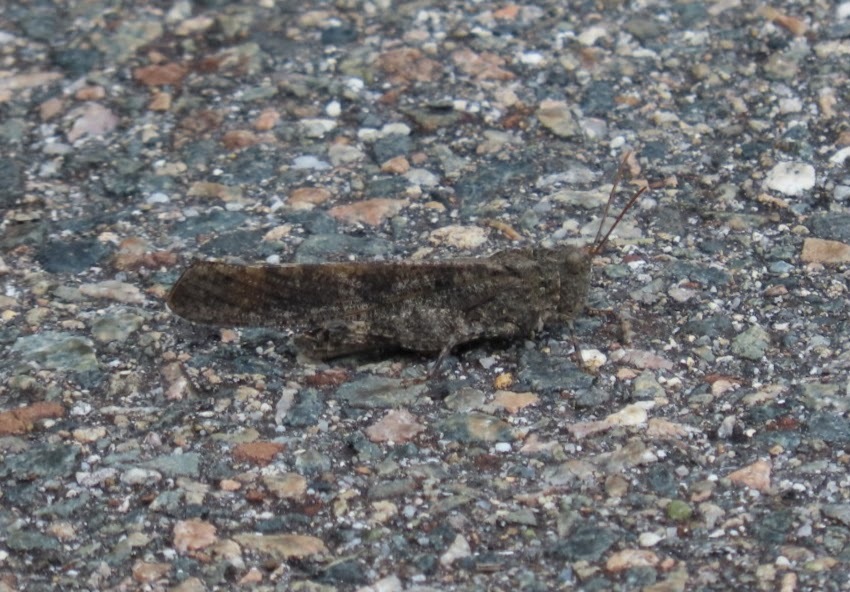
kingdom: Animalia
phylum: Arthropoda
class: Insecta
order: Orthoptera
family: Acrididae
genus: Dissosteira
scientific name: Dissosteira carolina
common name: Carolina grasshopper
